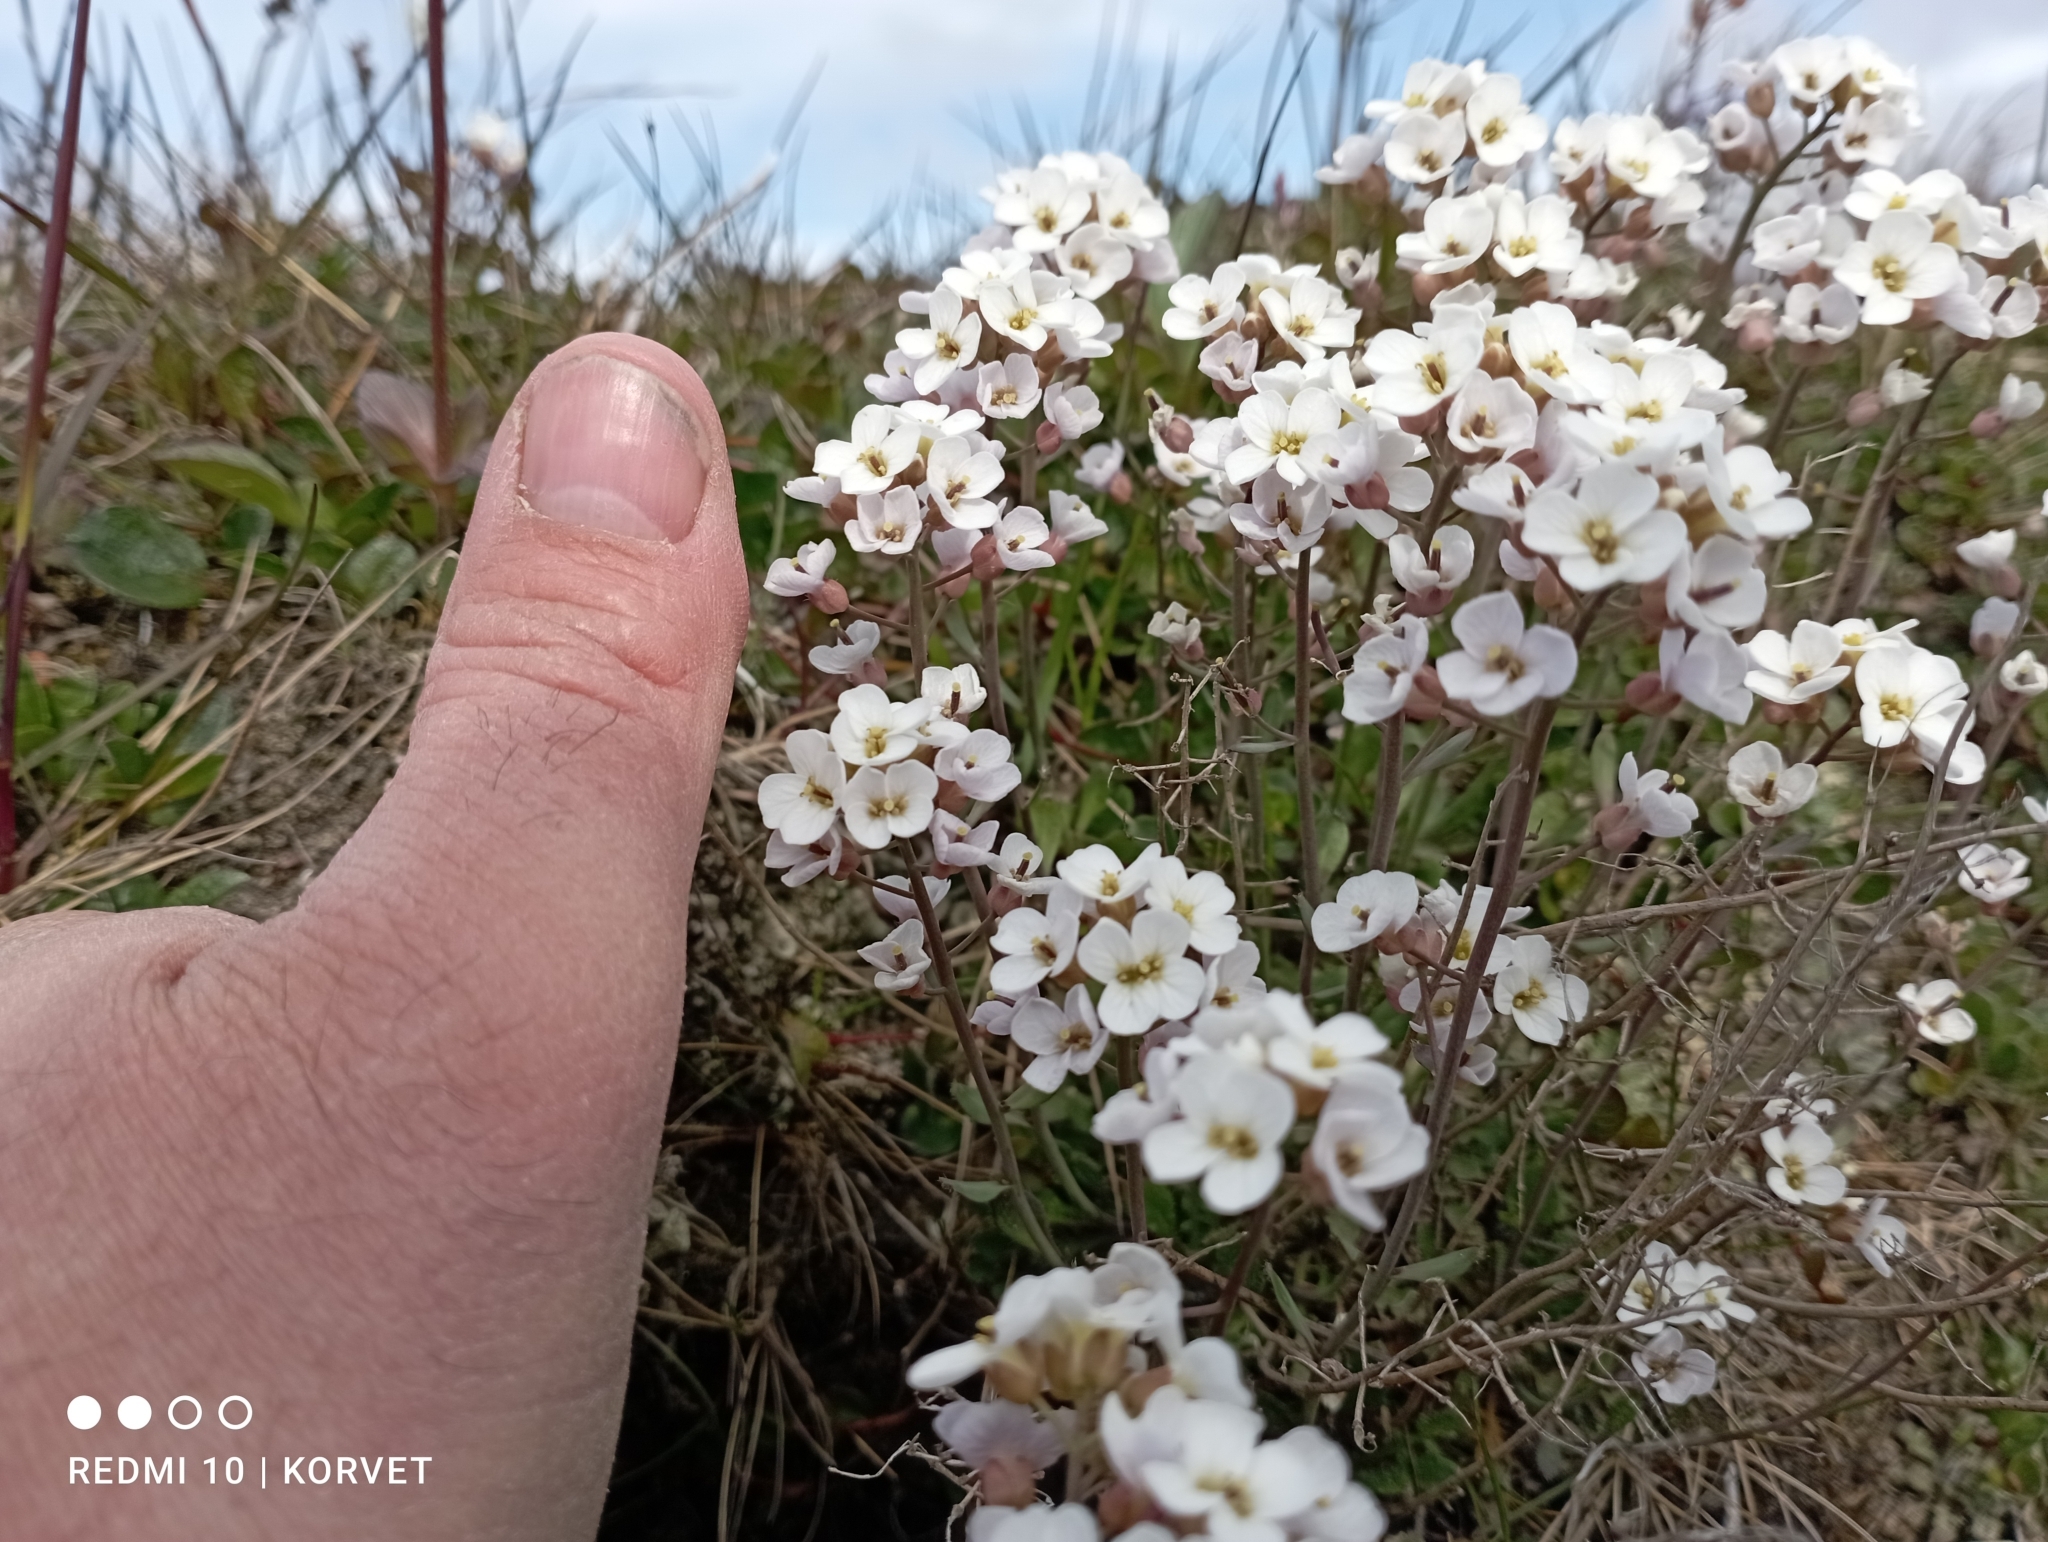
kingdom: Plantae
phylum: Tracheophyta
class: Magnoliopsida
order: Brassicales
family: Brassicaceae
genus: Arabidopsis
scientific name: Arabidopsis lyrata
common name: Lyrate rockcress
